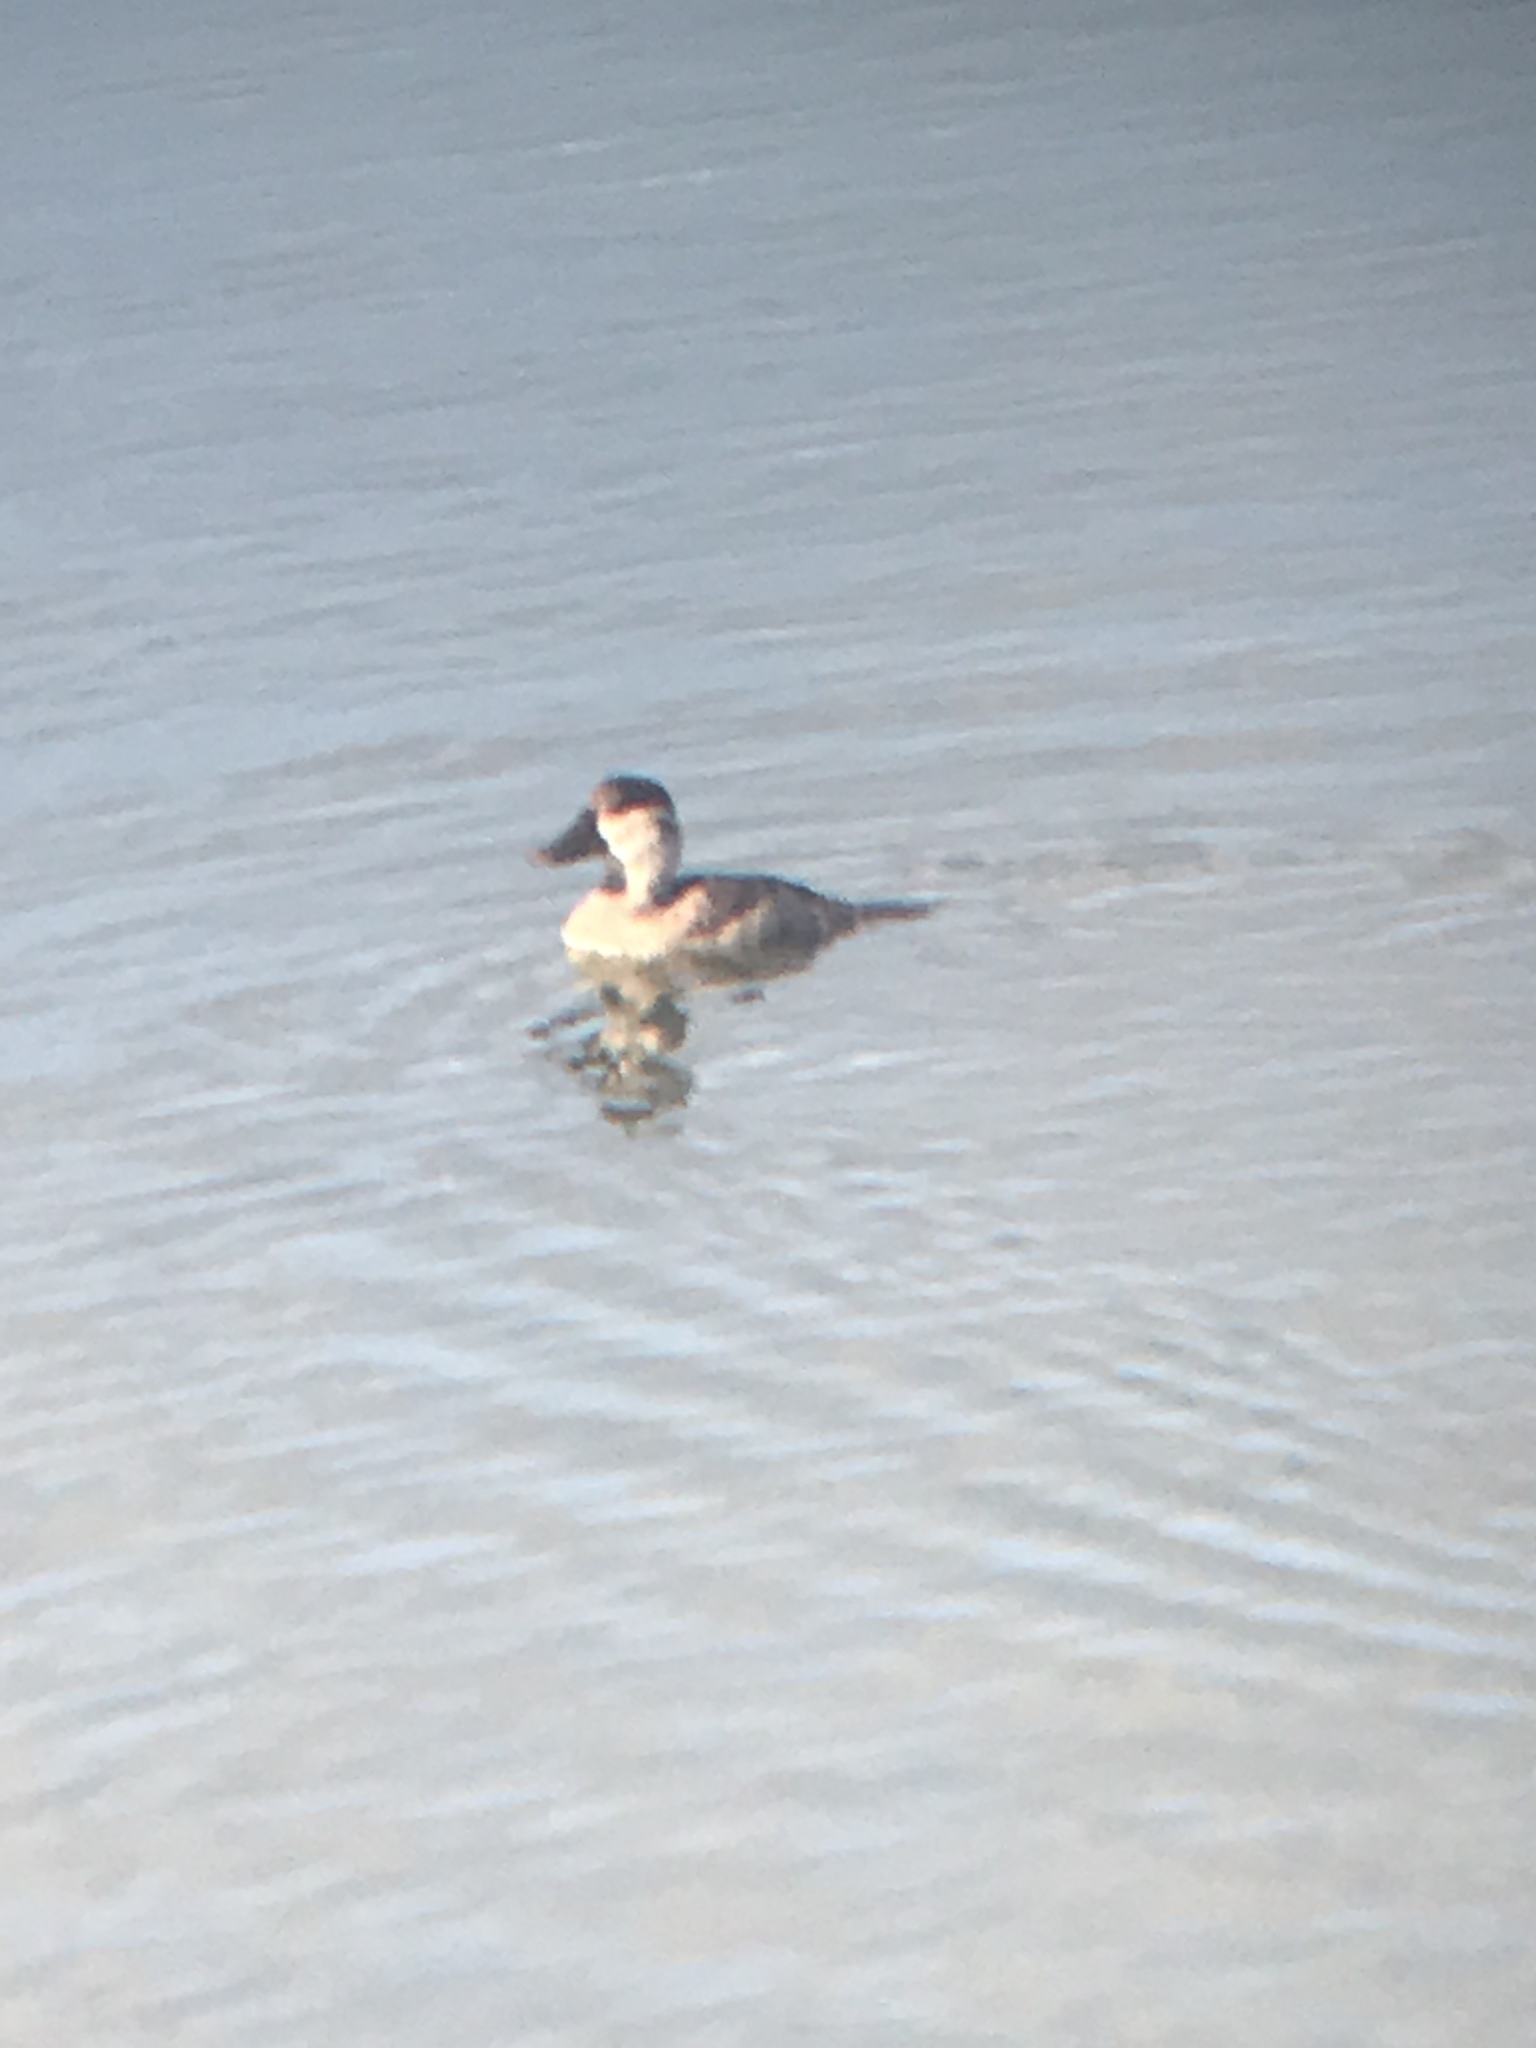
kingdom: Animalia
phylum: Chordata
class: Aves
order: Anseriformes
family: Anatidae
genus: Oxyura
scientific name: Oxyura jamaicensis
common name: Ruddy duck
